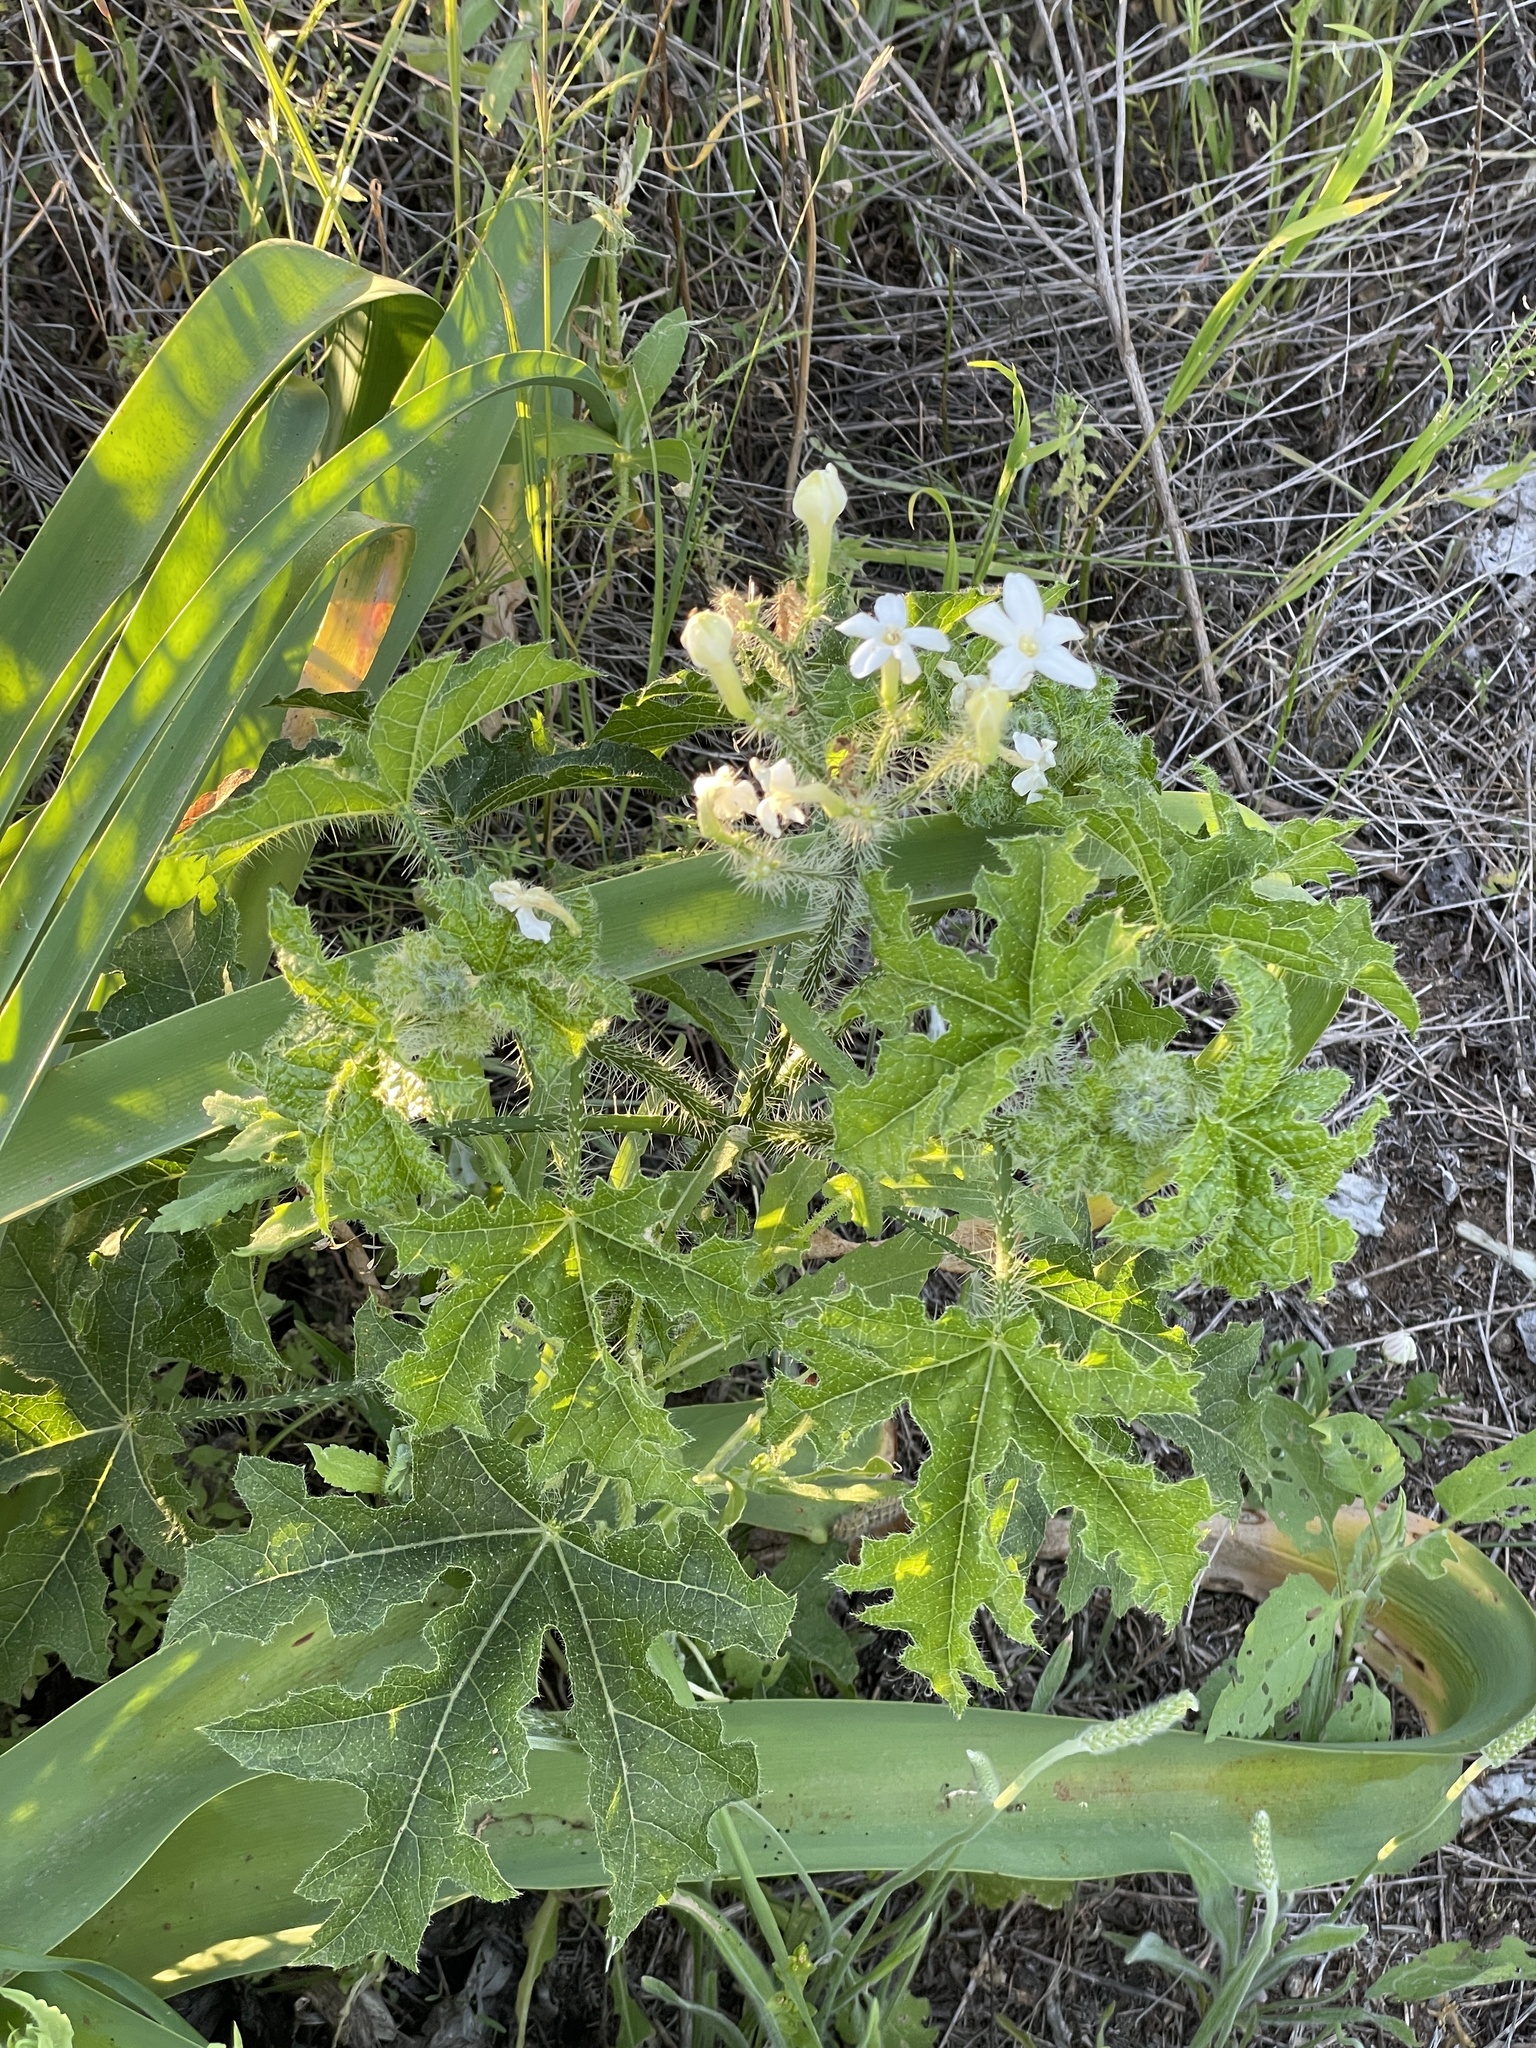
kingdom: Plantae
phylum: Tracheophyta
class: Magnoliopsida
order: Malpighiales
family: Euphorbiaceae
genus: Cnidoscolus
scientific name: Cnidoscolus texanus
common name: Texas bull-nettle
